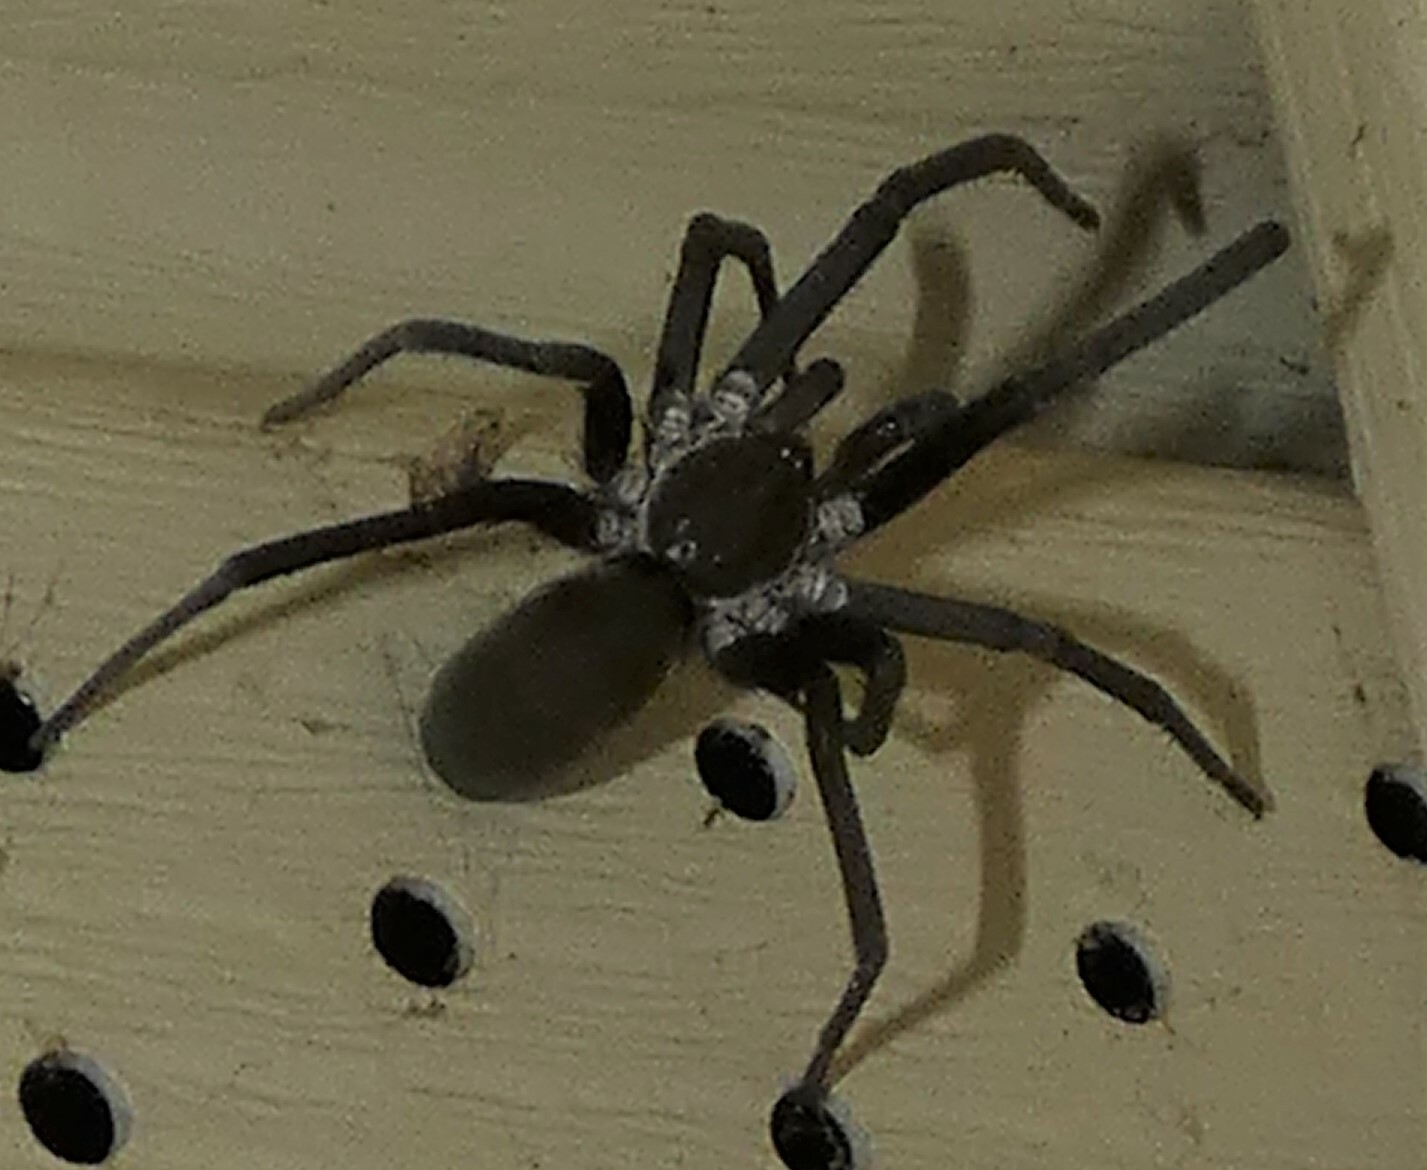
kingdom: Animalia
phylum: Arthropoda
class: Arachnida
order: Araneae
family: Filistatidae
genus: Kukulcania
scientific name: Kukulcania hibernalis
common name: Crevice weaver
